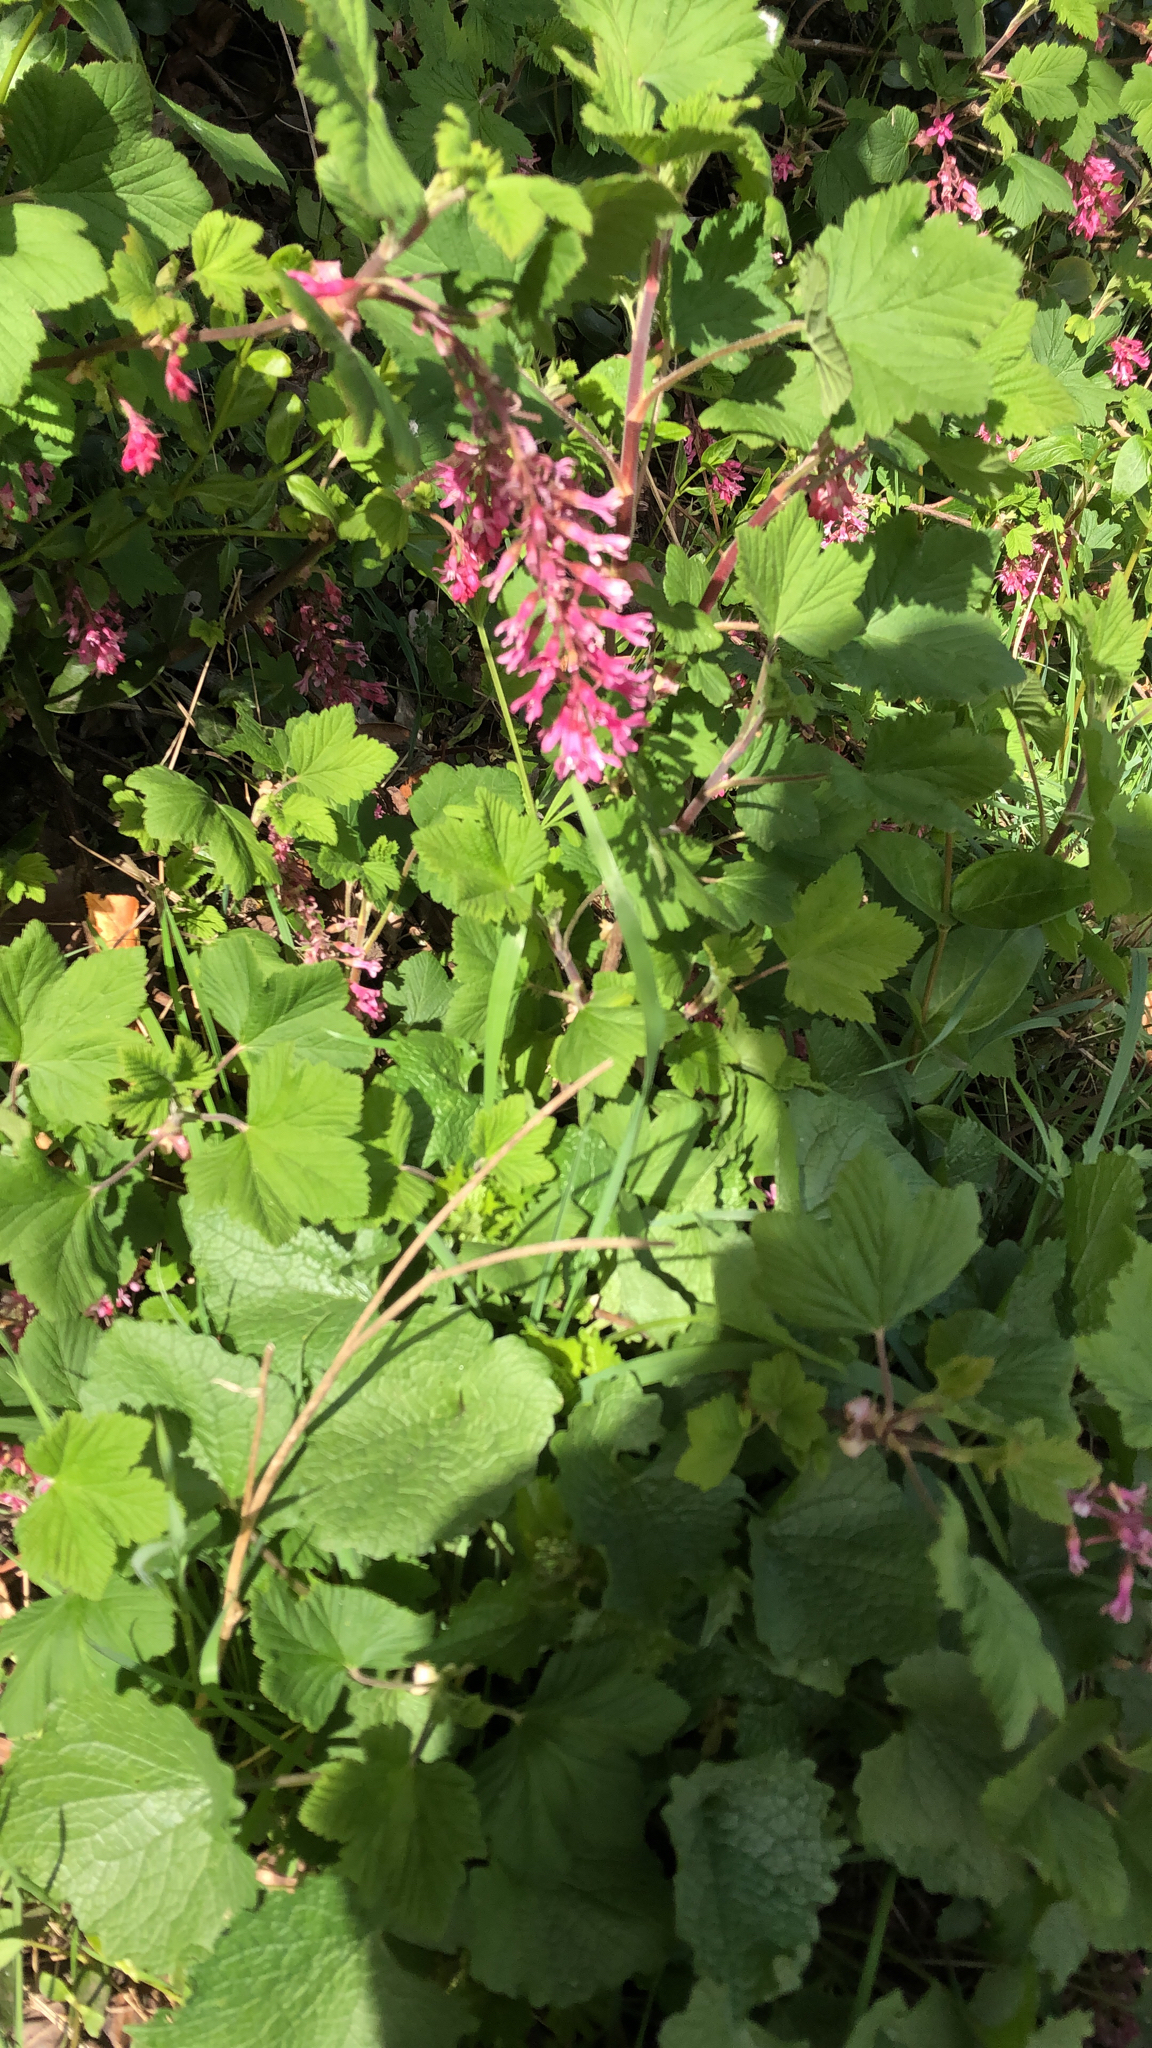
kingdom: Plantae
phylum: Tracheophyta
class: Magnoliopsida
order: Saxifragales
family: Grossulariaceae
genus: Ribes
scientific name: Ribes sanguineum
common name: Flowering currant
